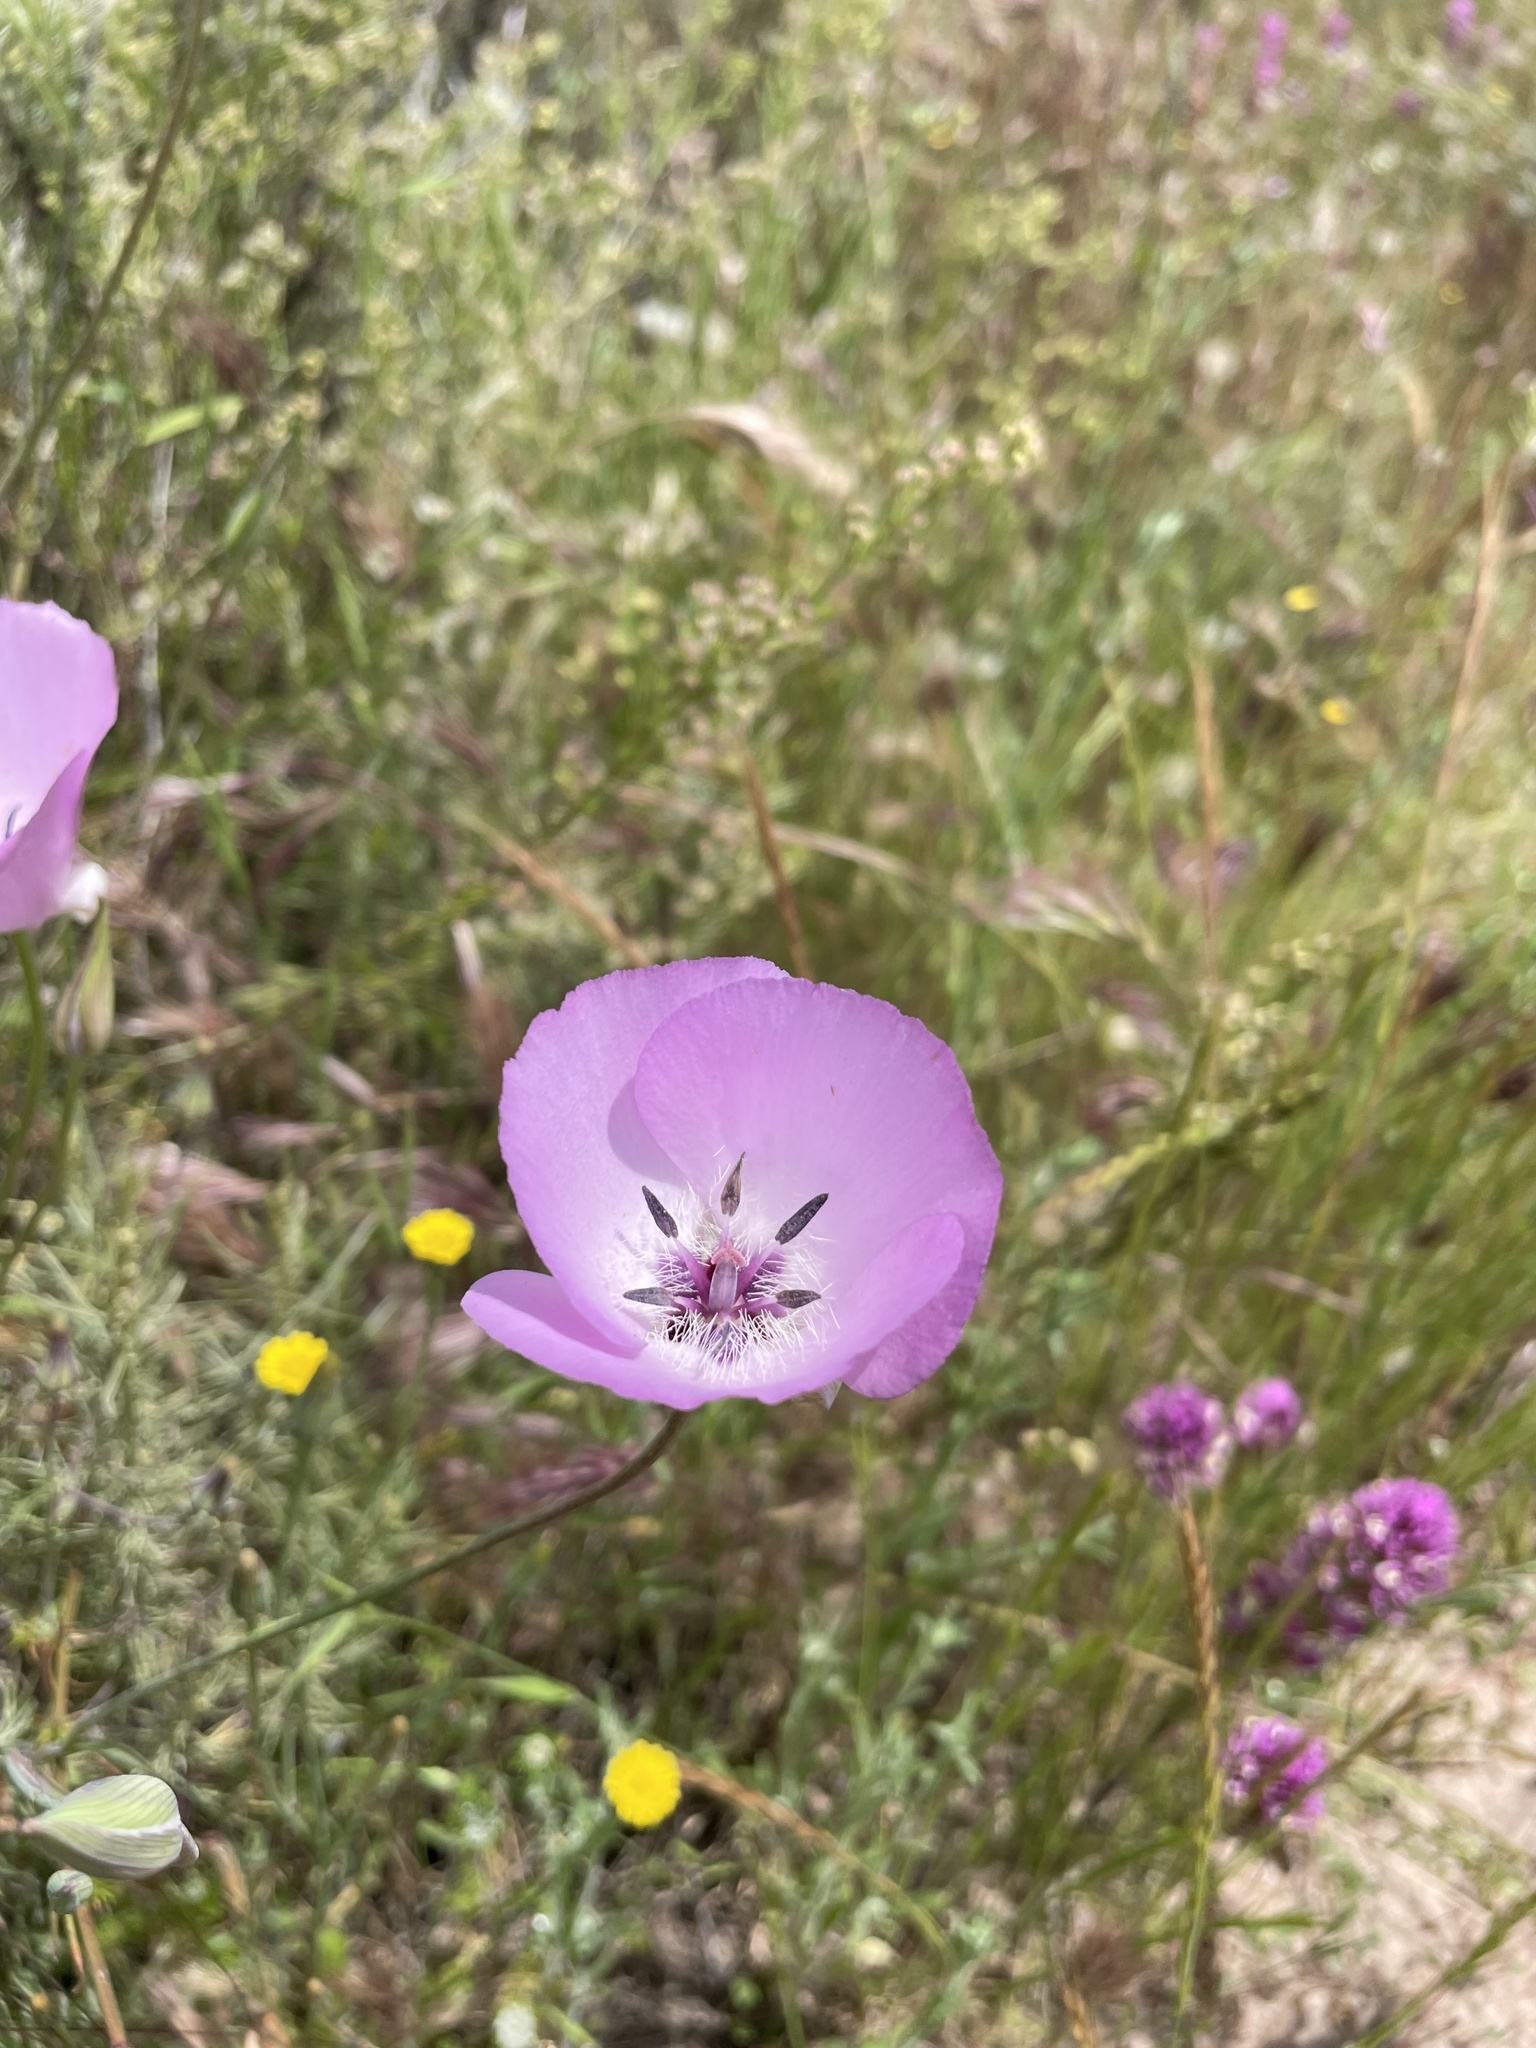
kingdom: Plantae
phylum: Tracheophyta
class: Liliopsida
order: Liliales
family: Liliaceae
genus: Calochortus
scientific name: Calochortus splendens
